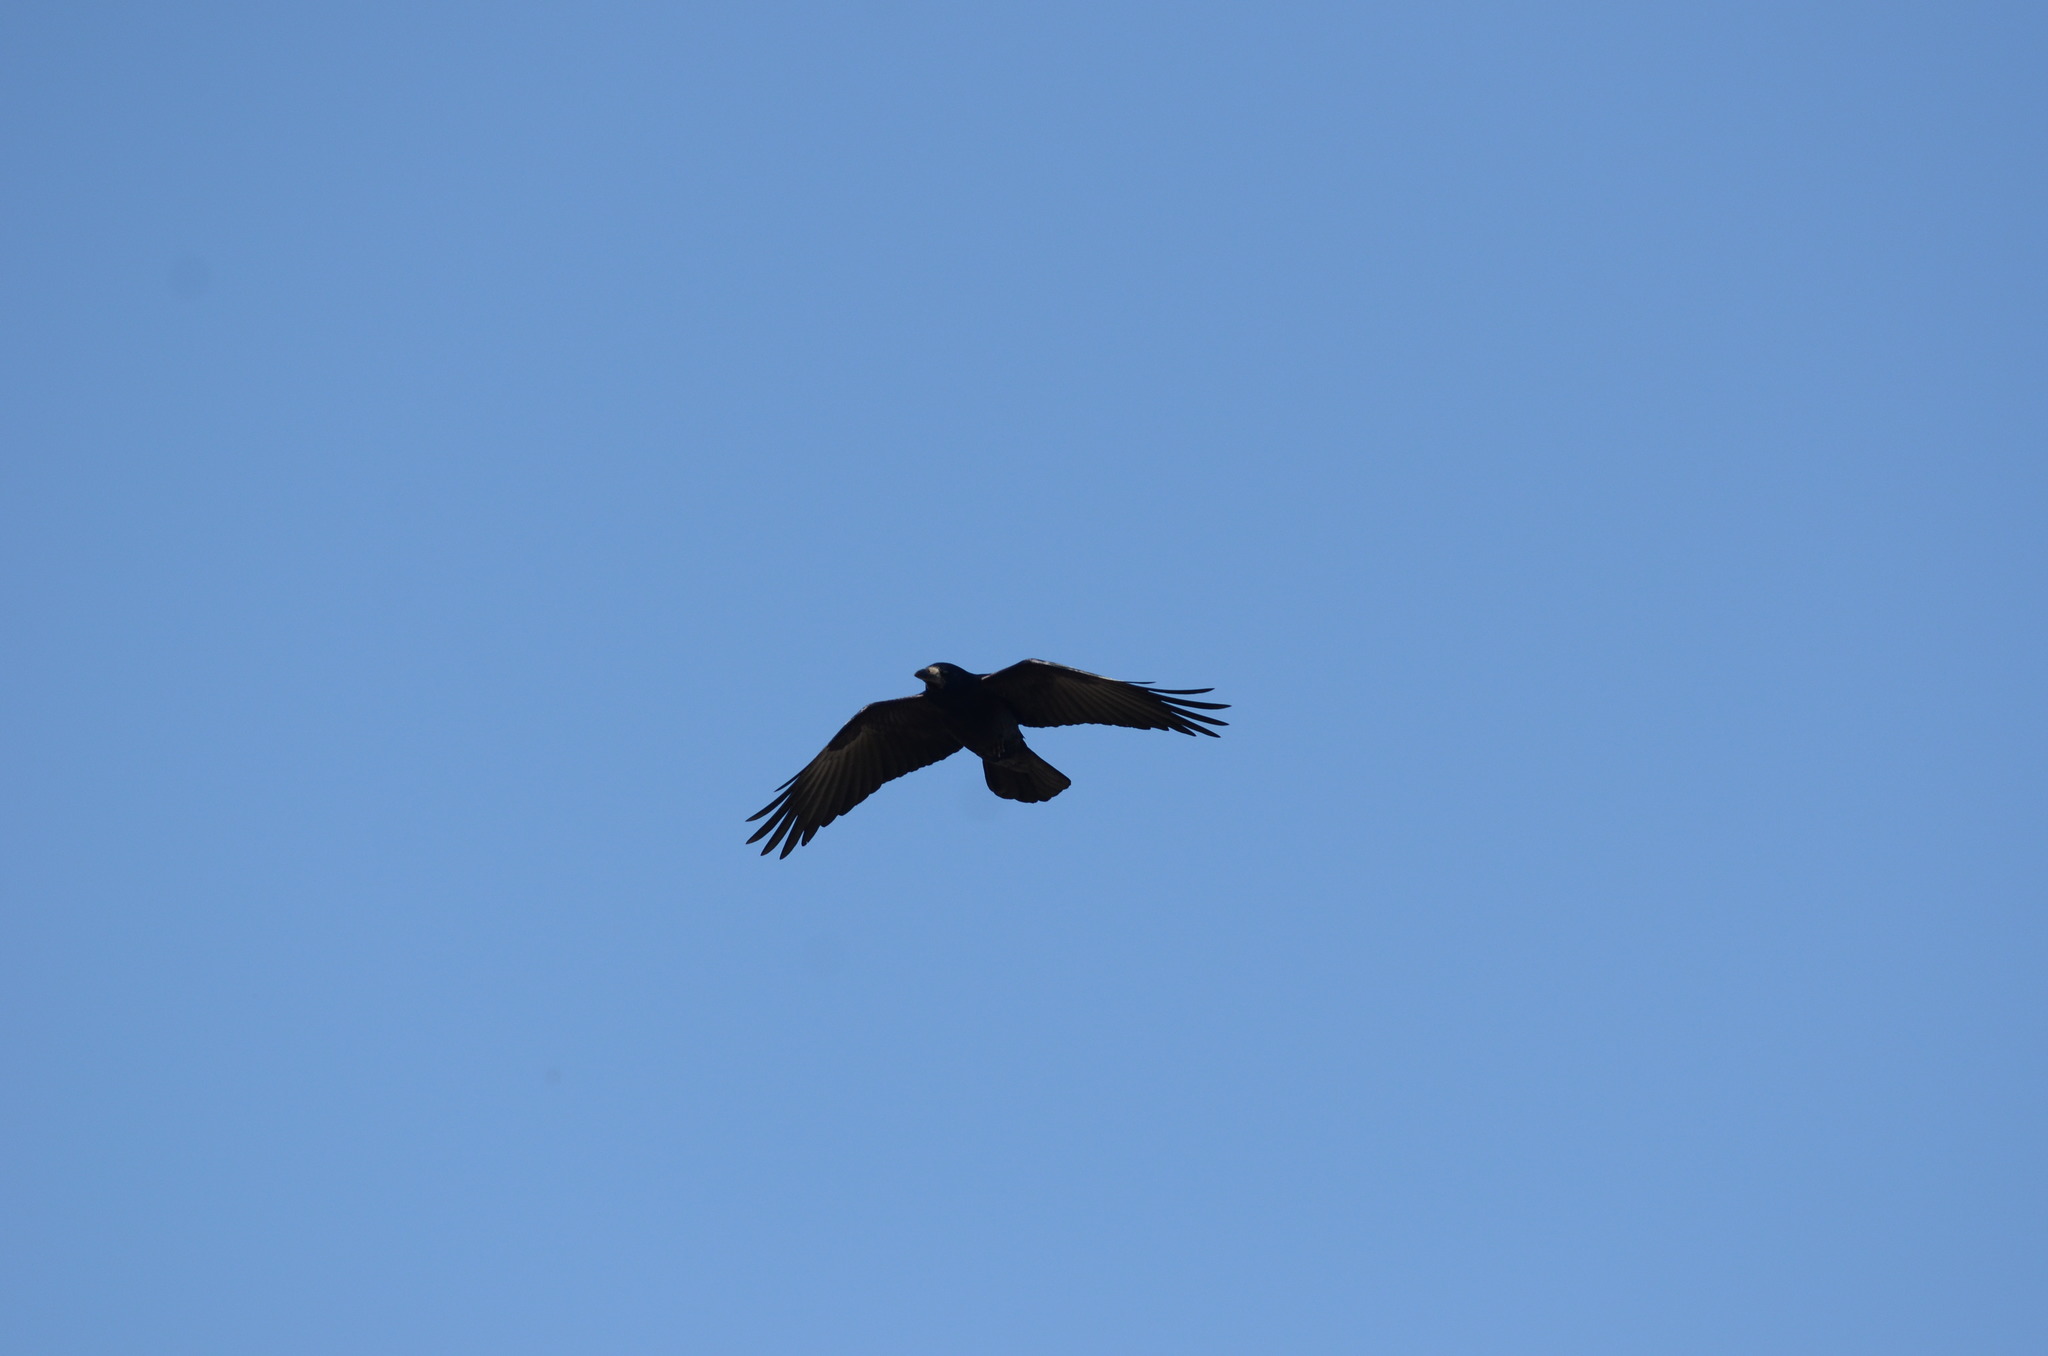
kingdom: Animalia
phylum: Chordata
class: Aves
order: Passeriformes
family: Corvidae
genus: Corvus
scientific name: Corvus frugilegus
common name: Rook
